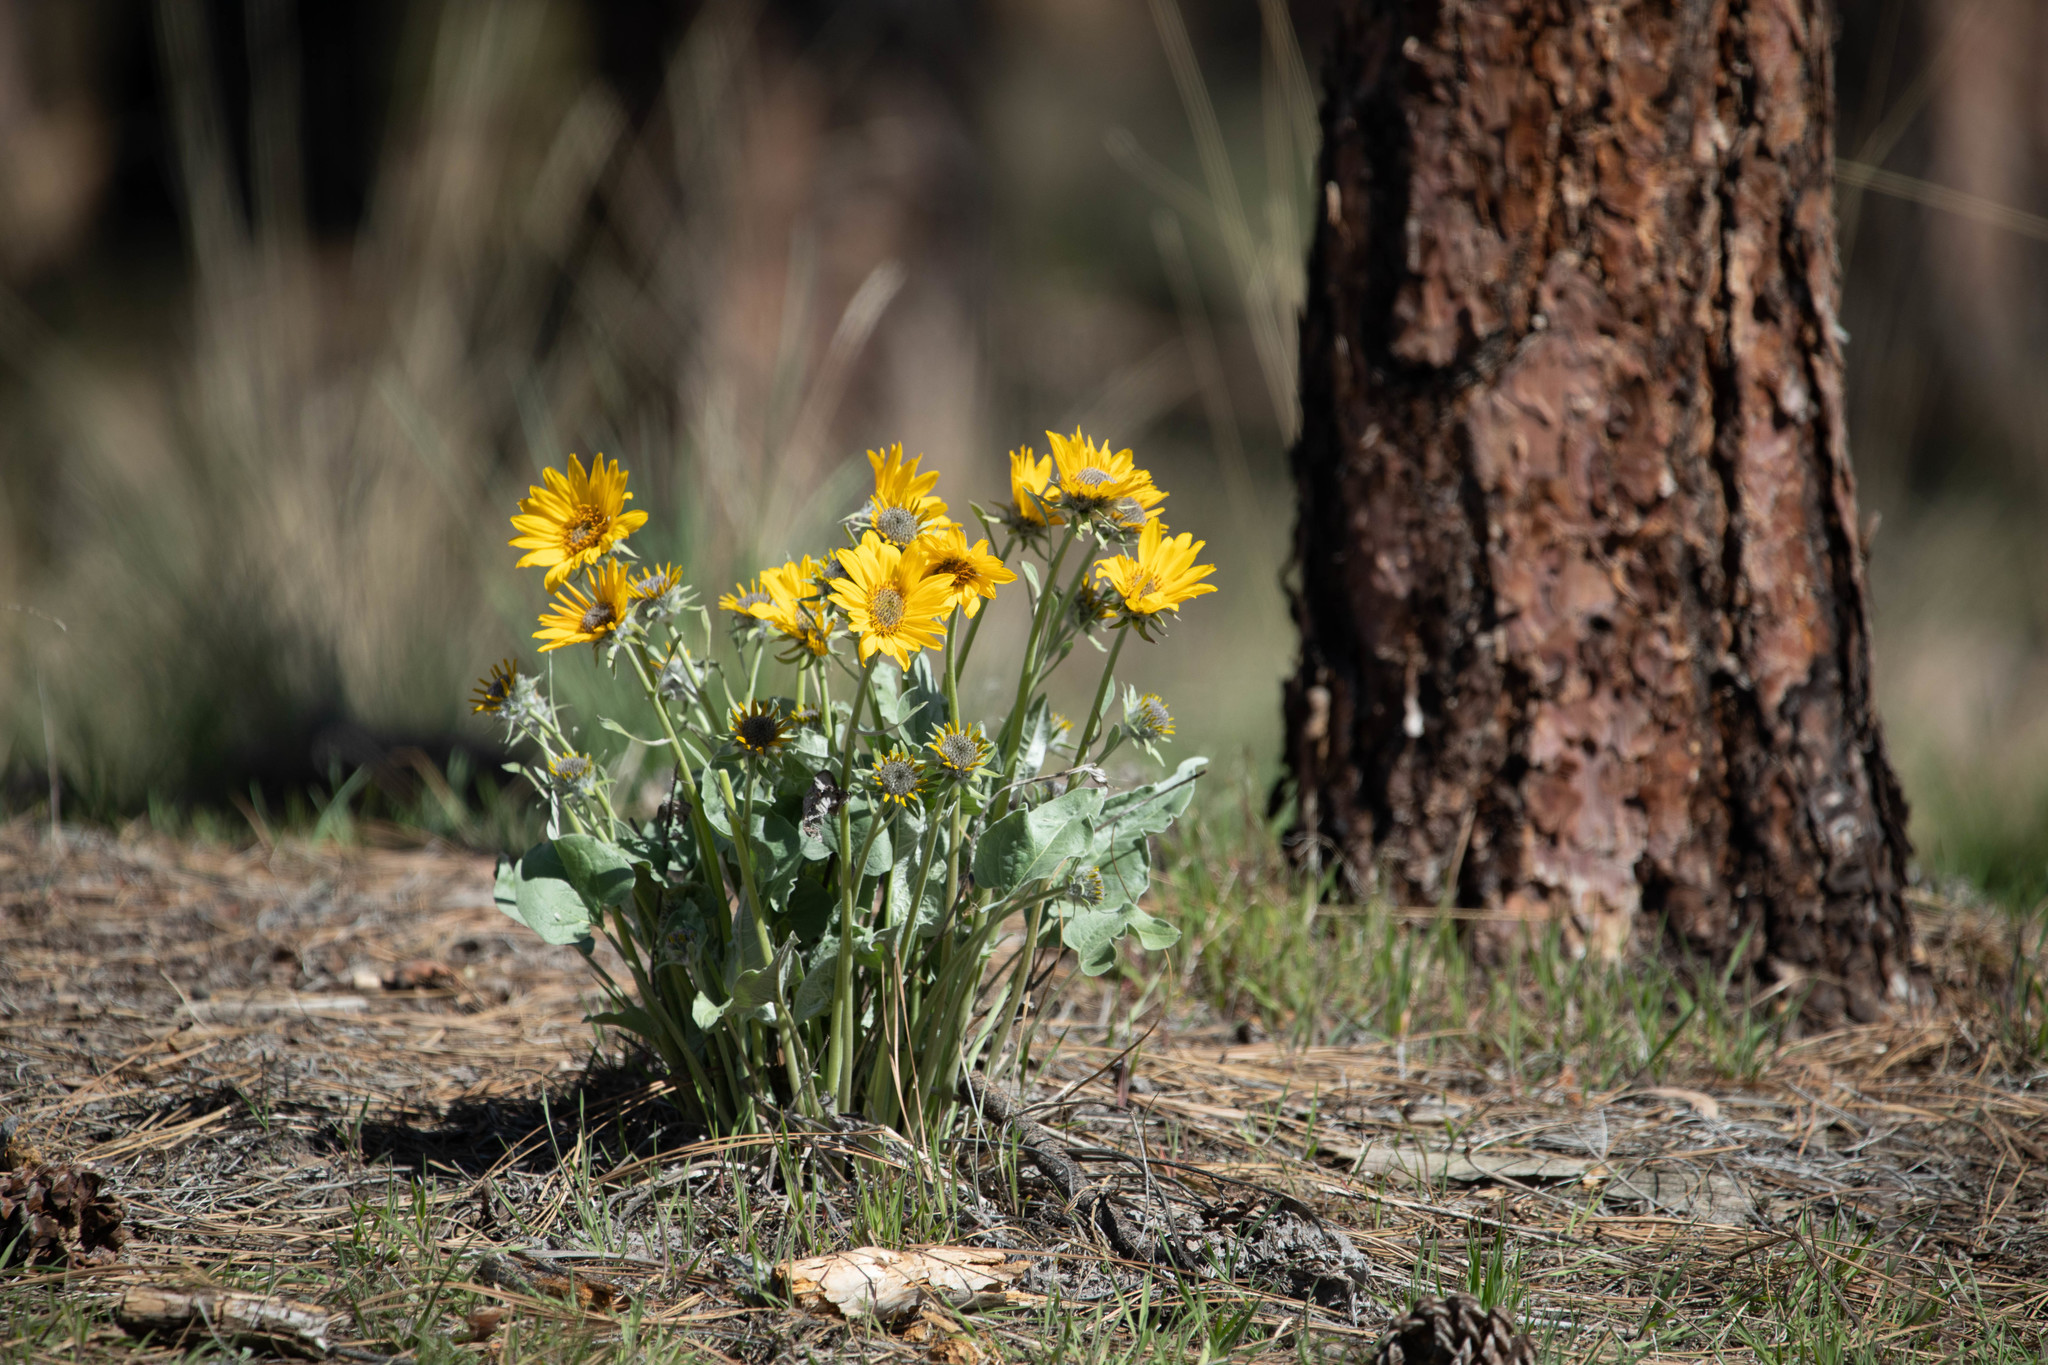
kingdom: Plantae
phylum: Tracheophyta
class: Magnoliopsida
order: Asterales
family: Asteraceae
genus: Wyethia
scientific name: Wyethia sagittata
